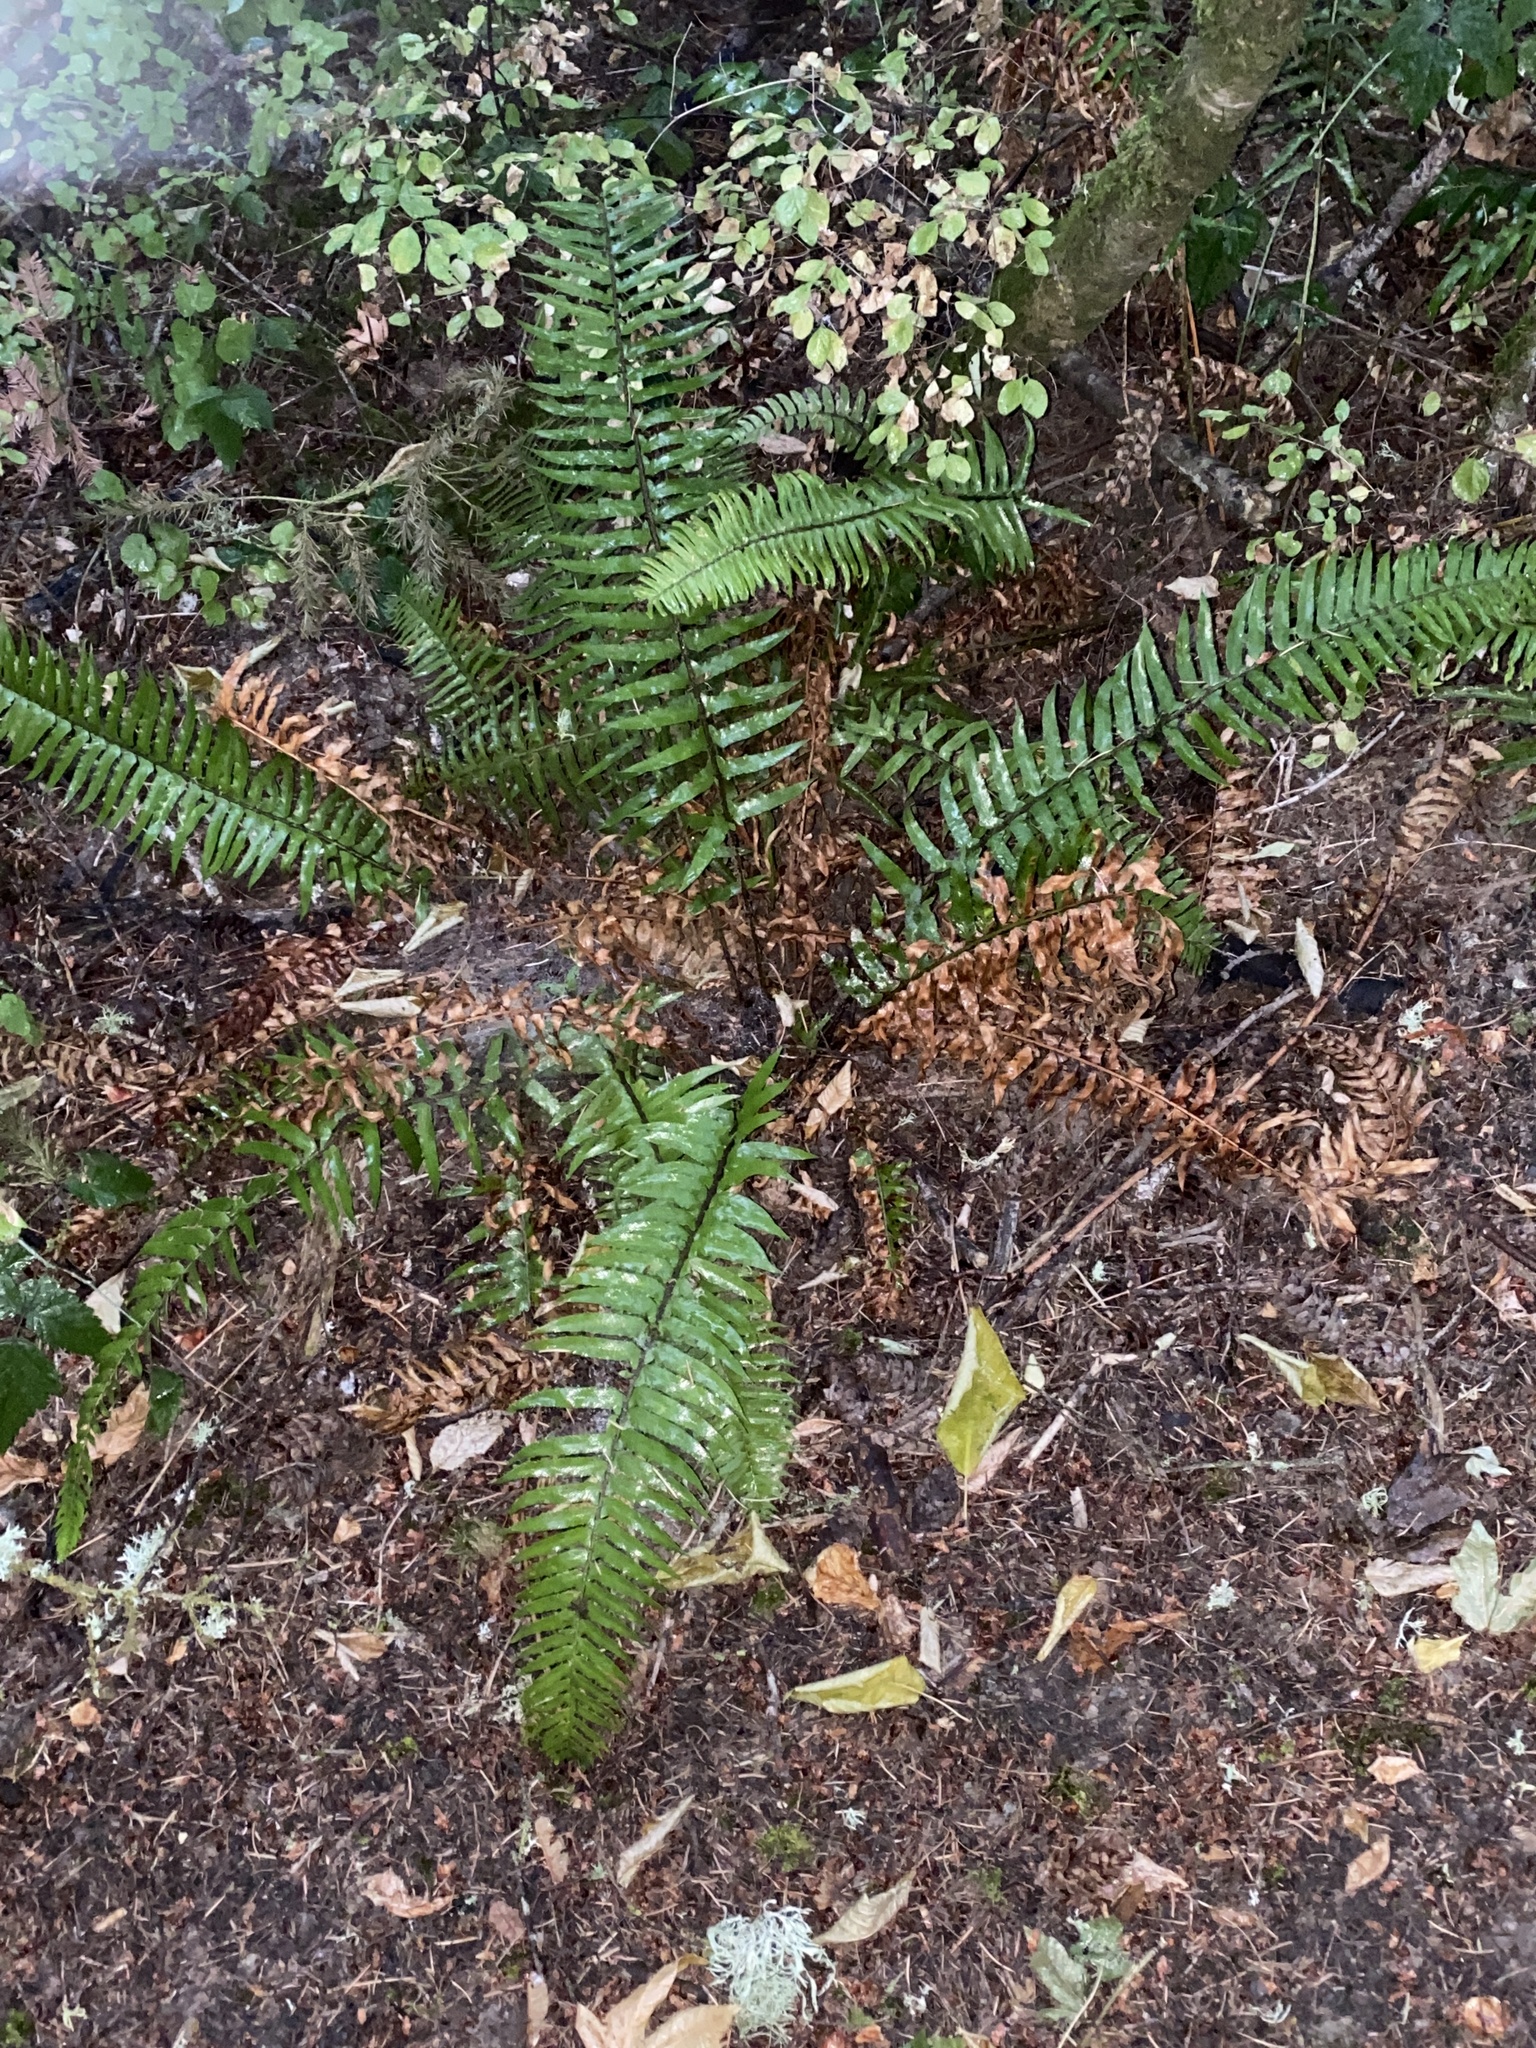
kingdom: Plantae
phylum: Tracheophyta
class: Polypodiopsida
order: Polypodiales
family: Dryopteridaceae
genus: Polystichum
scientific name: Polystichum munitum
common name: Western sword-fern
